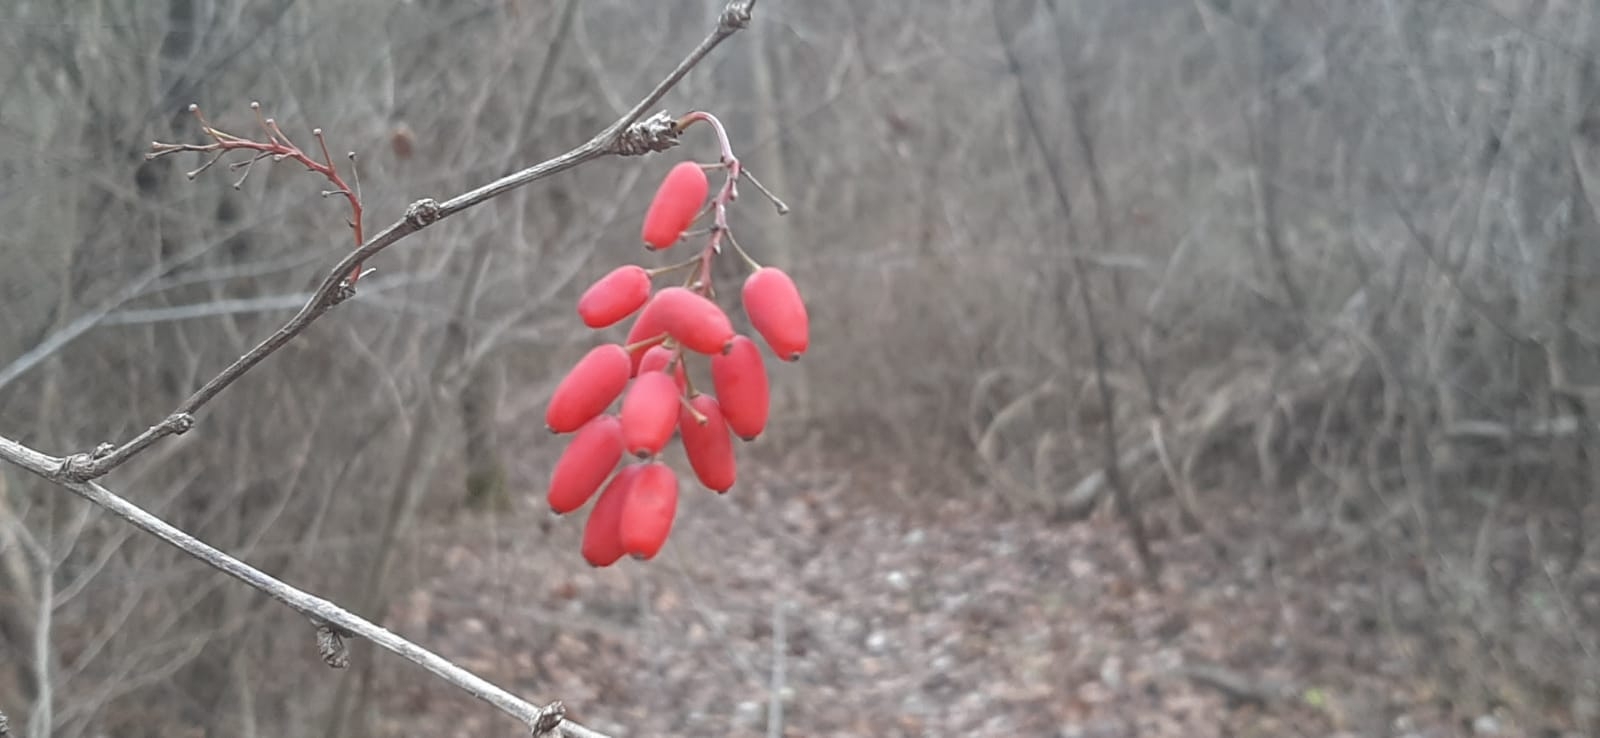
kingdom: Plantae
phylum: Tracheophyta
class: Magnoliopsida
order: Ranunculales
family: Berberidaceae
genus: Berberis
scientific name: Berberis vulgaris
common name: Barberry
